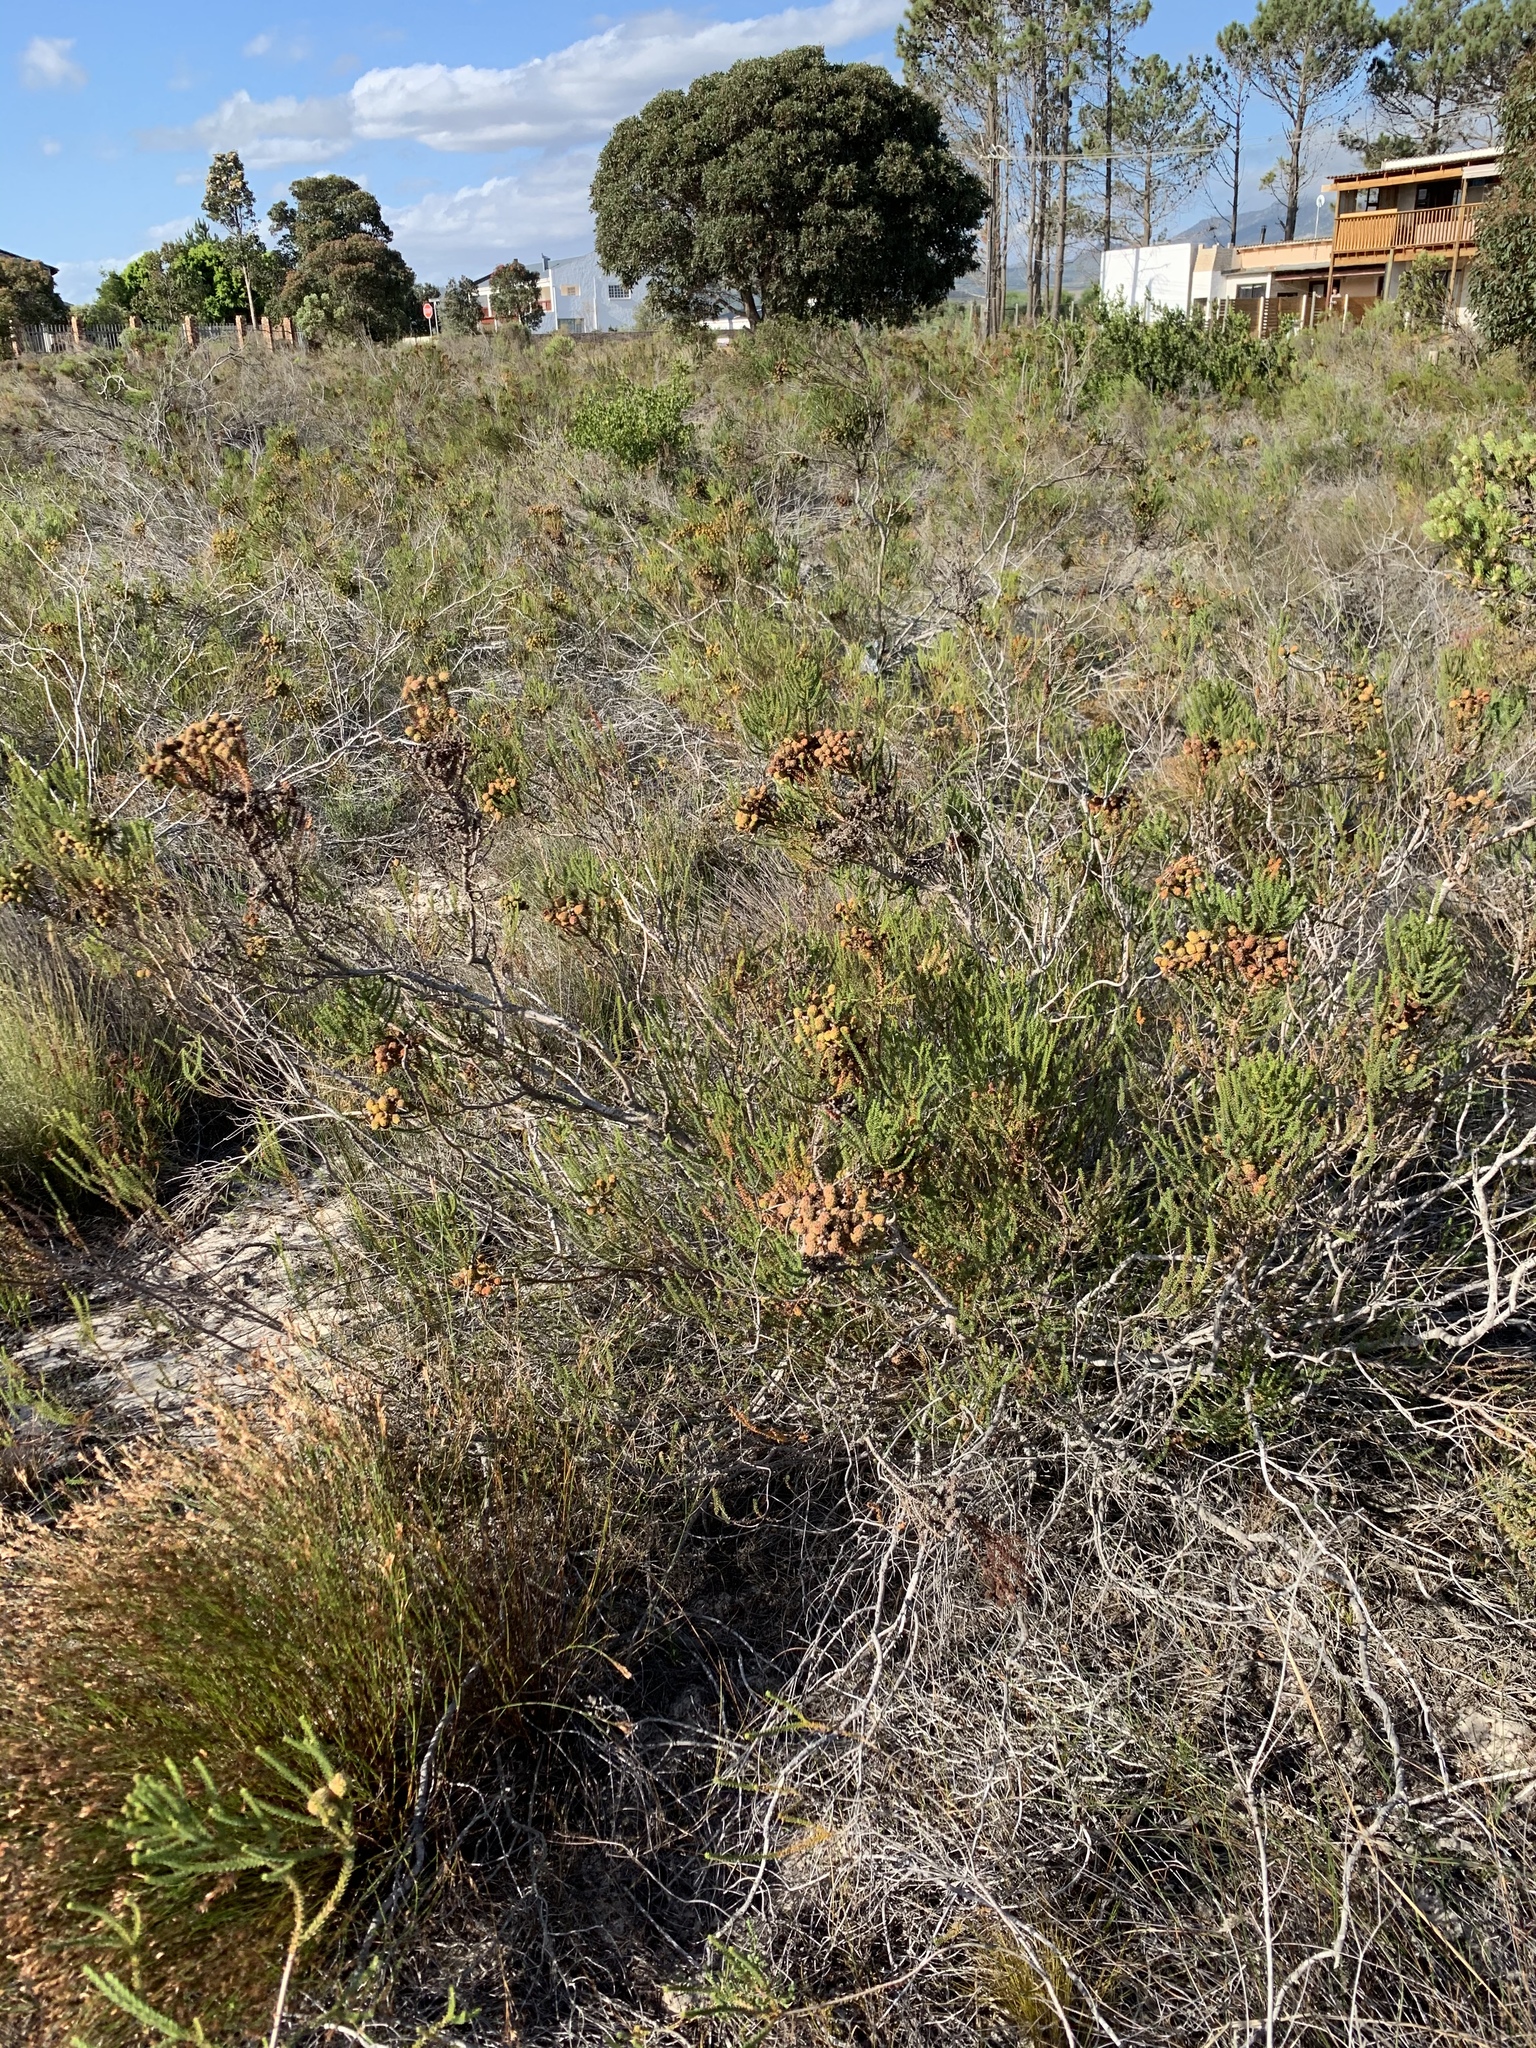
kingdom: Plantae
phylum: Tracheophyta
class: Magnoliopsida
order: Bruniales
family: Bruniaceae
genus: Berzelia
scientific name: Berzelia abrotanoides
